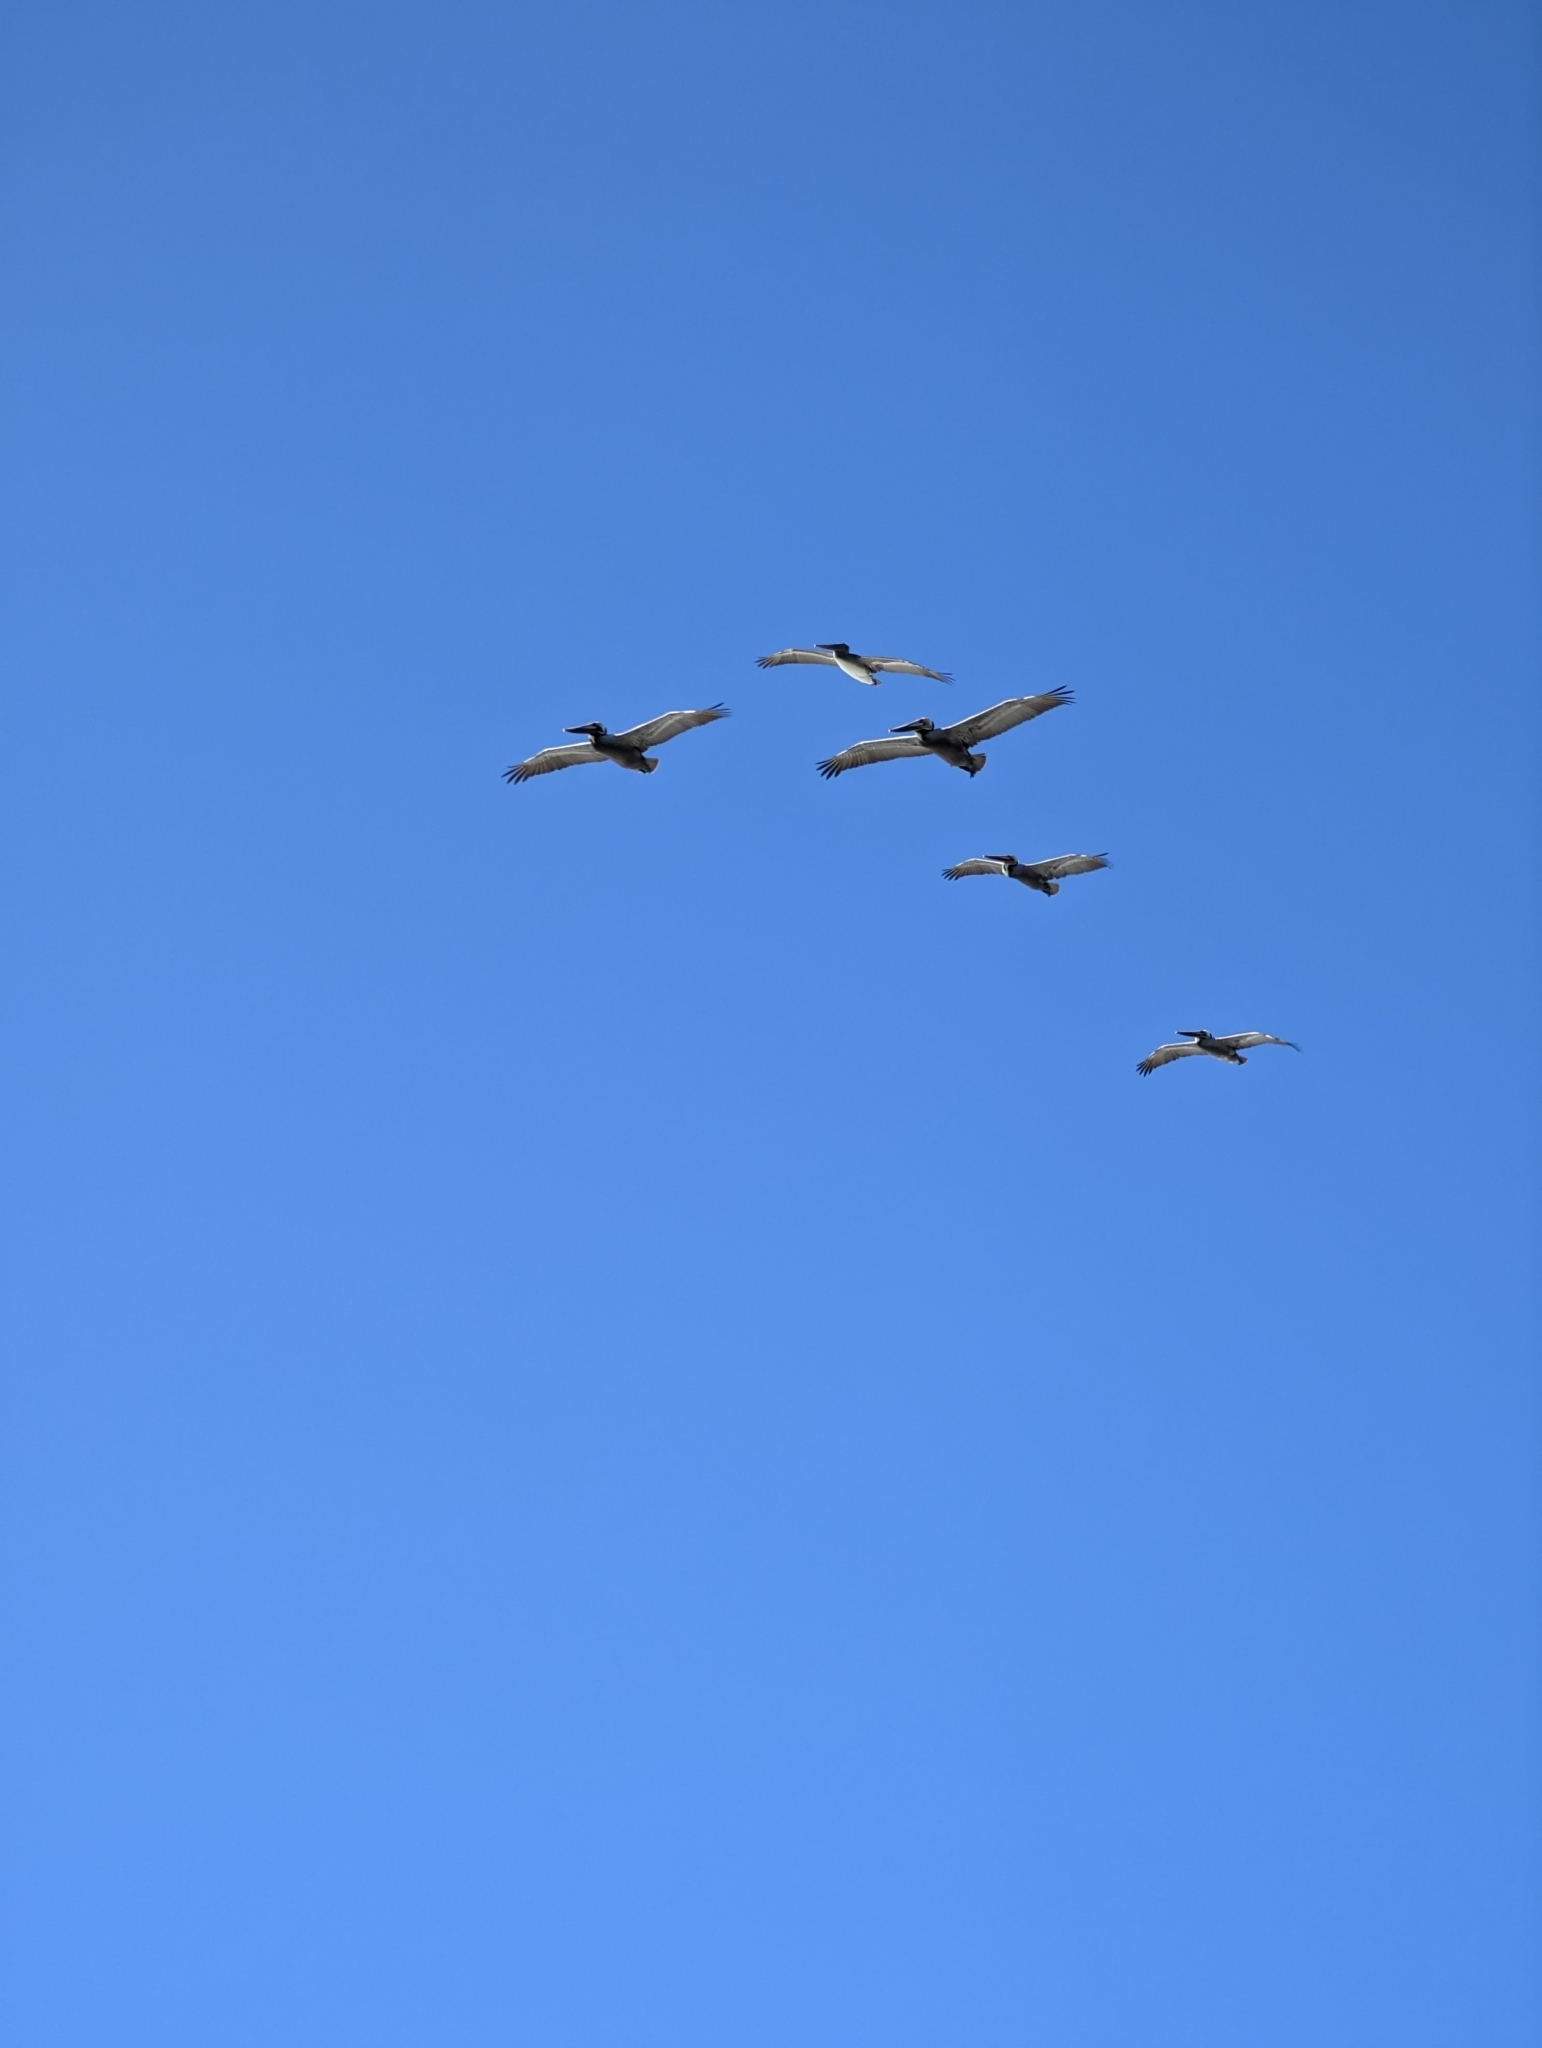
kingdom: Animalia
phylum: Chordata
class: Aves
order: Pelecaniformes
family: Pelecanidae
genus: Pelecanus
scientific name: Pelecanus occidentalis
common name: Brown pelican
